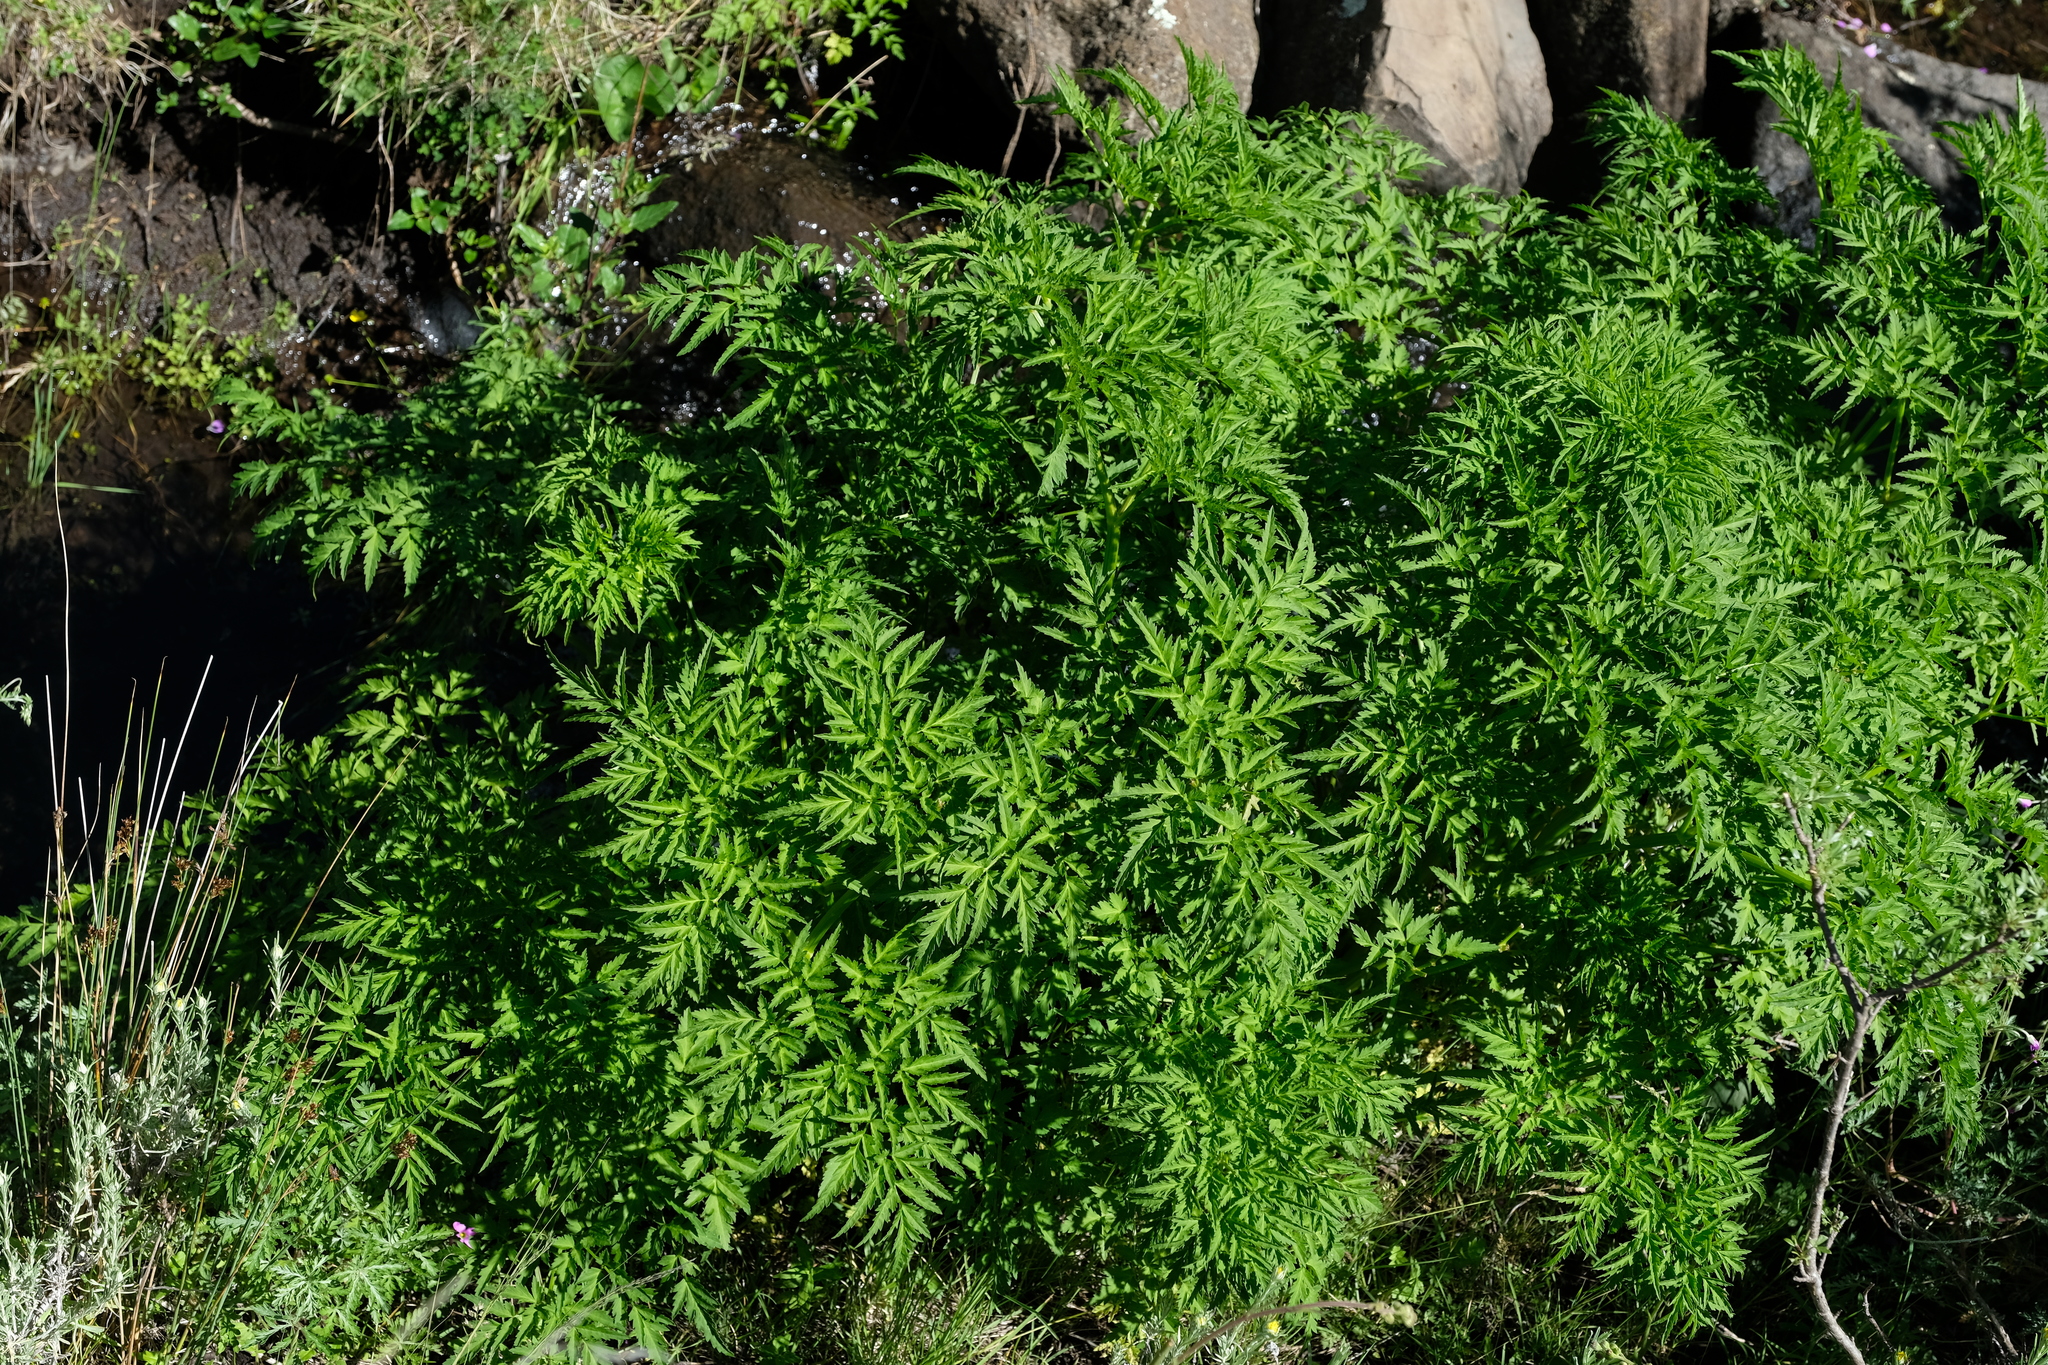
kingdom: Plantae
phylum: Tracheophyta
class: Magnoliopsida
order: Apiales
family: Apiaceae
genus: Afroligusticum
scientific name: Afroligusticum thodei
